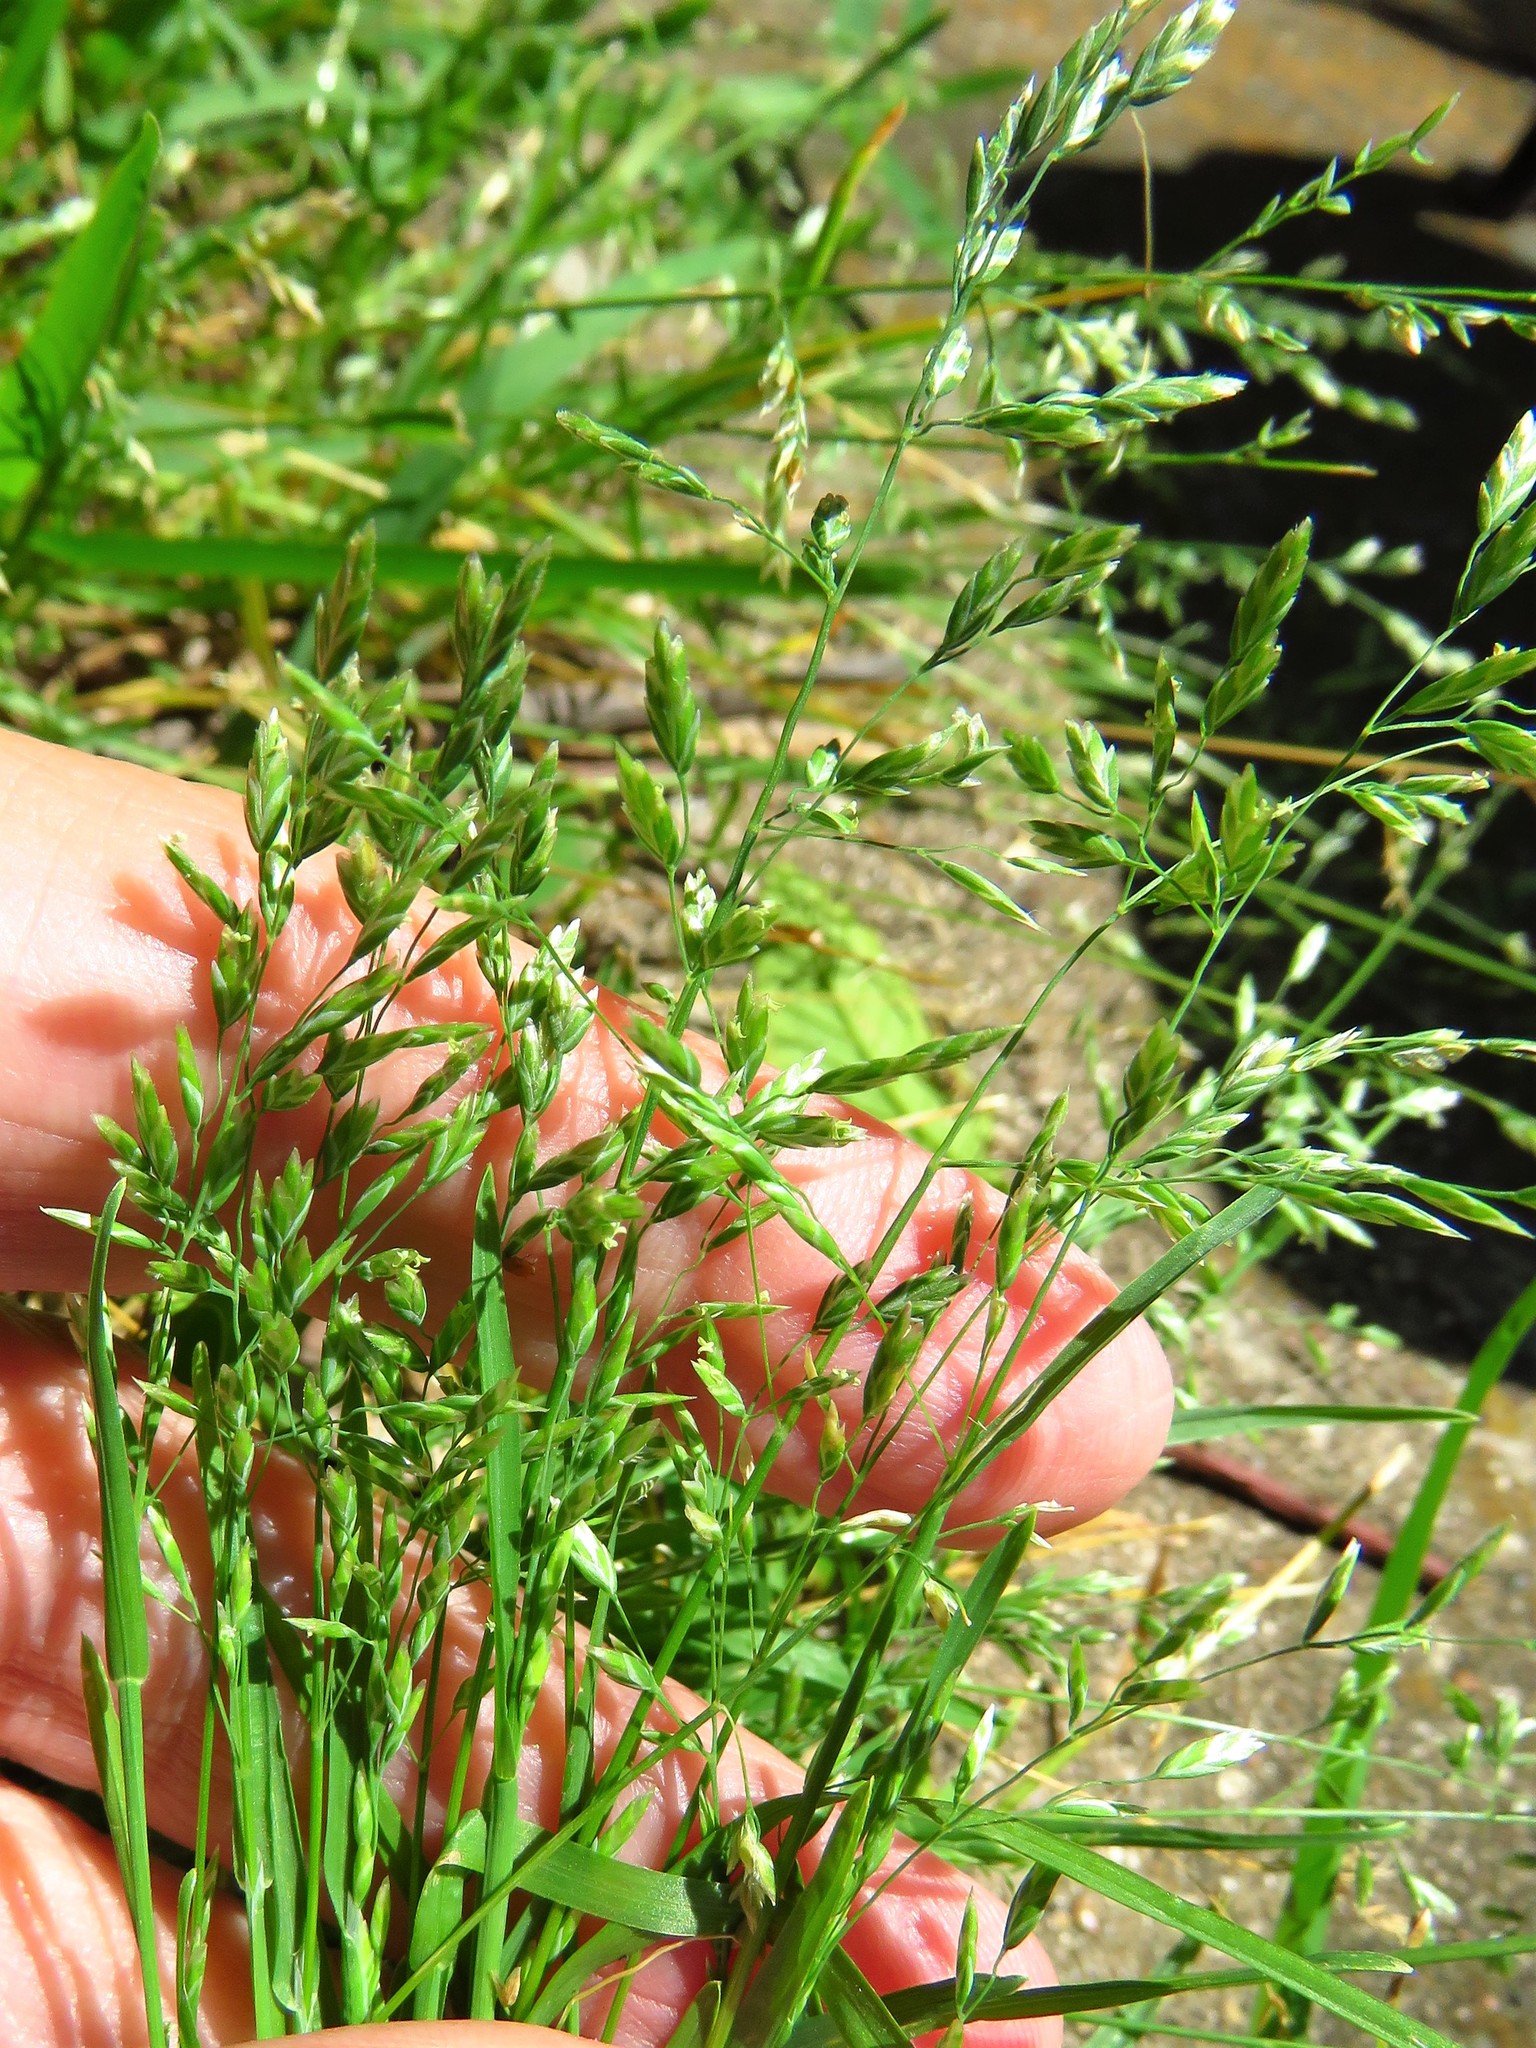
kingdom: Plantae
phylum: Tracheophyta
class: Liliopsida
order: Poales
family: Poaceae
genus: Poa
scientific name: Poa annua
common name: Annual bluegrass
